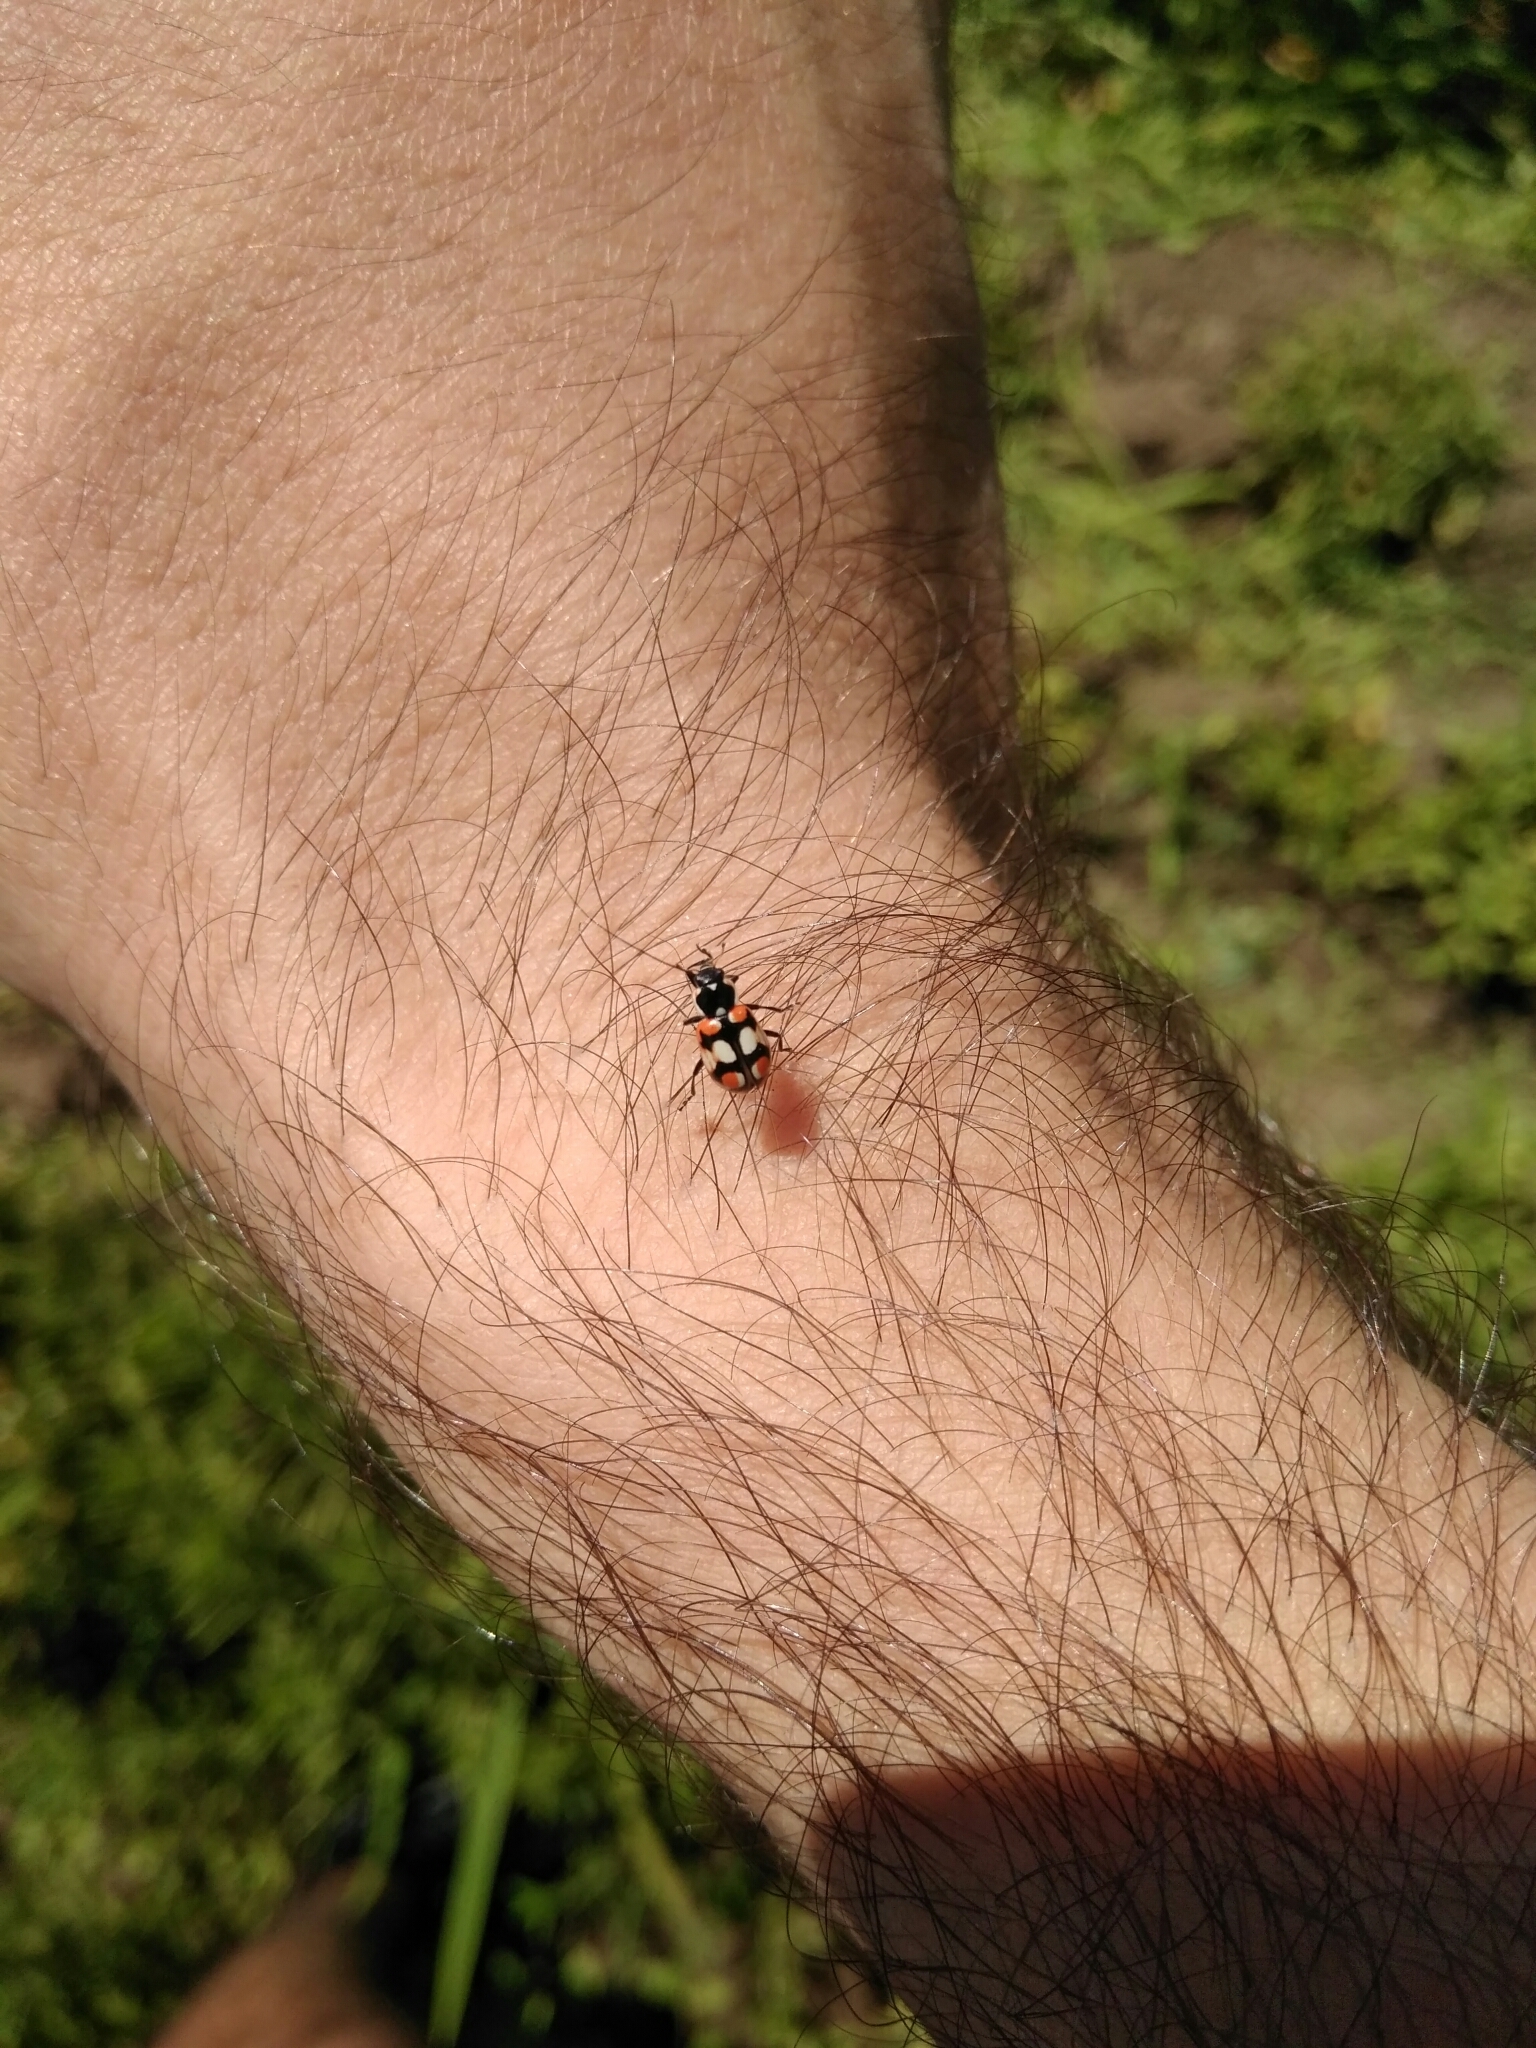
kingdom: Animalia
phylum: Arthropoda
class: Insecta
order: Coleoptera
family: Coccinellidae
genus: Eriopis
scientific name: Eriopis chilensis
